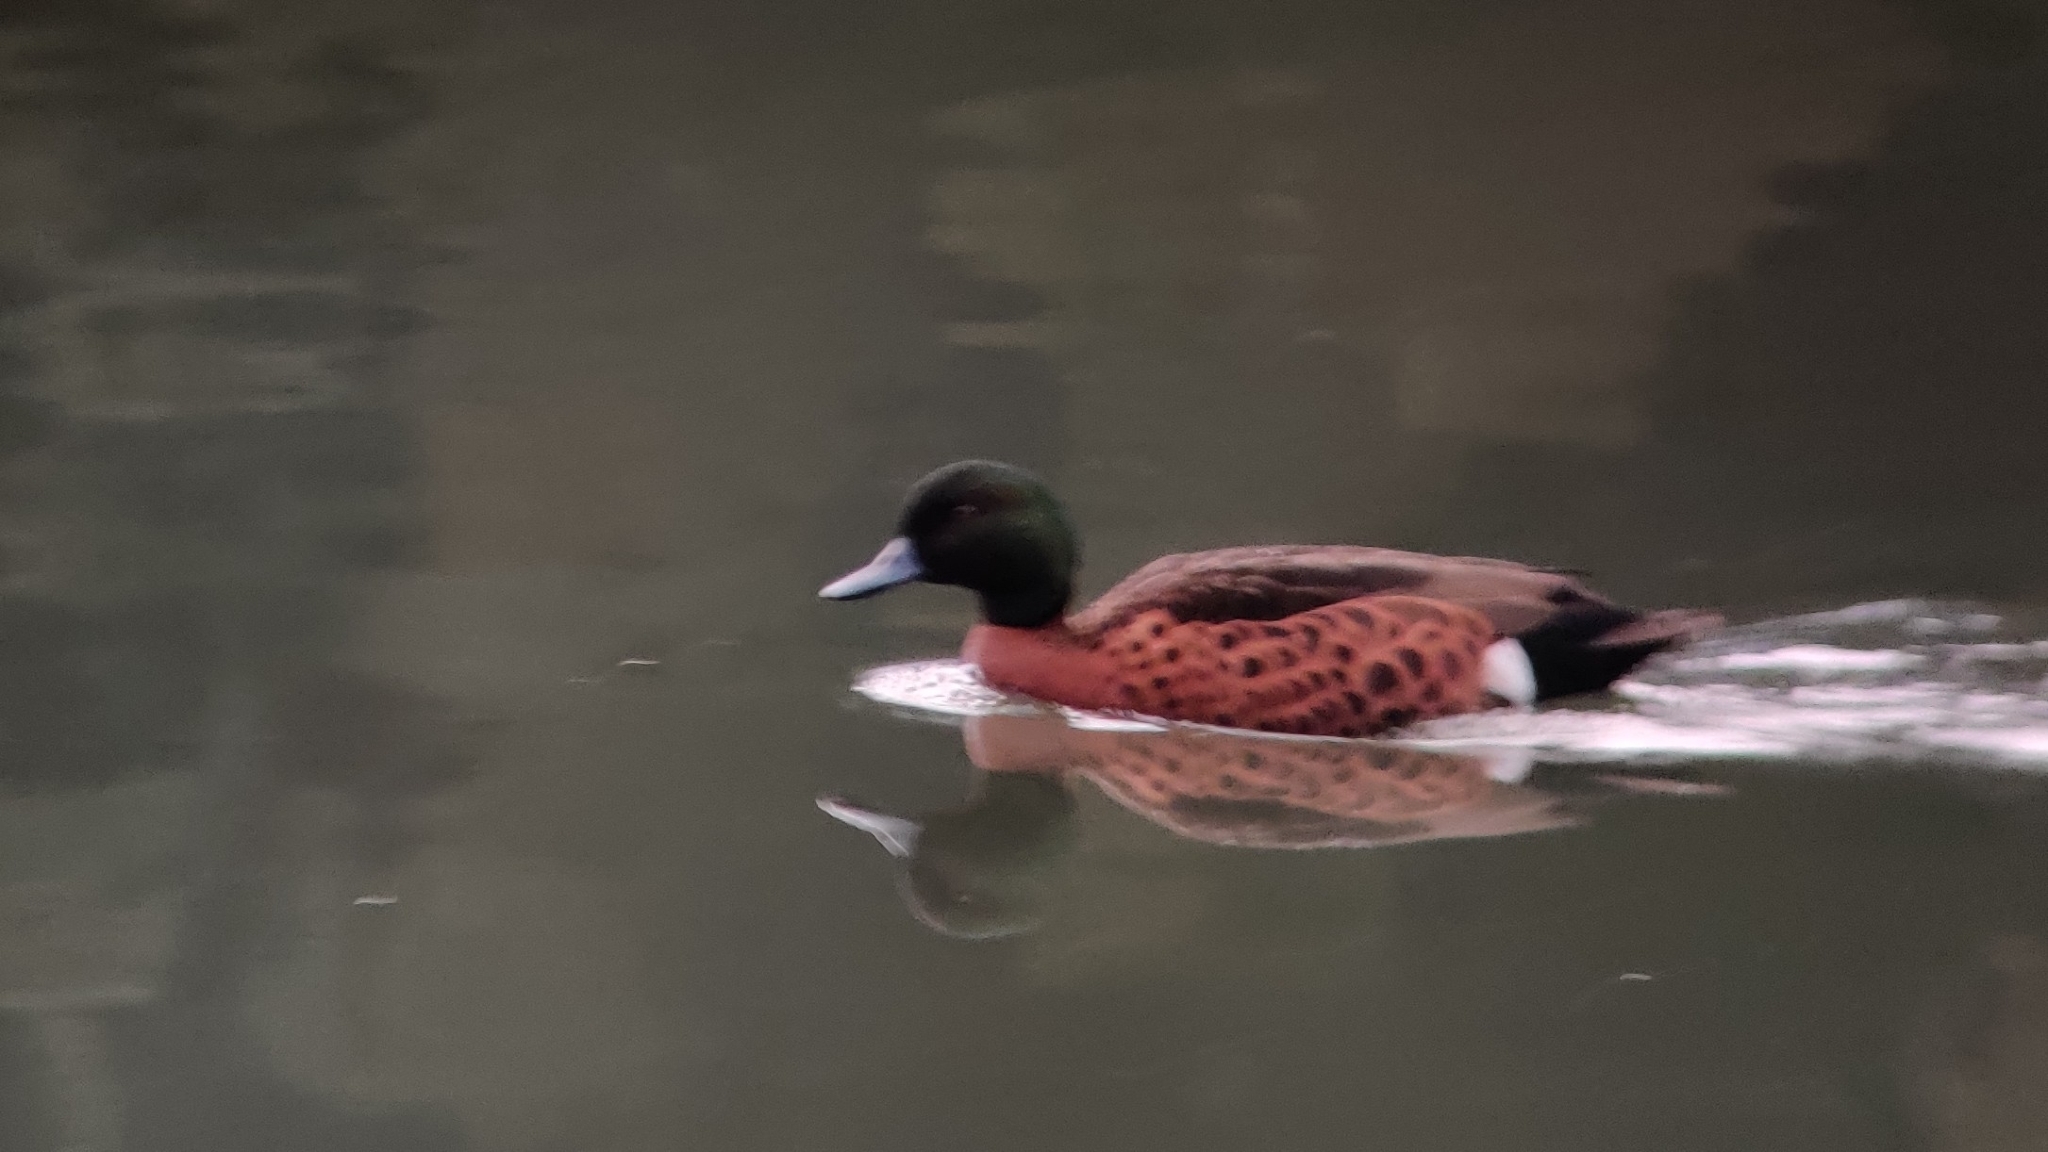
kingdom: Animalia
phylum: Chordata
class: Aves
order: Anseriformes
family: Anatidae
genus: Anas
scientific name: Anas castanea
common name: Chestnut teal
